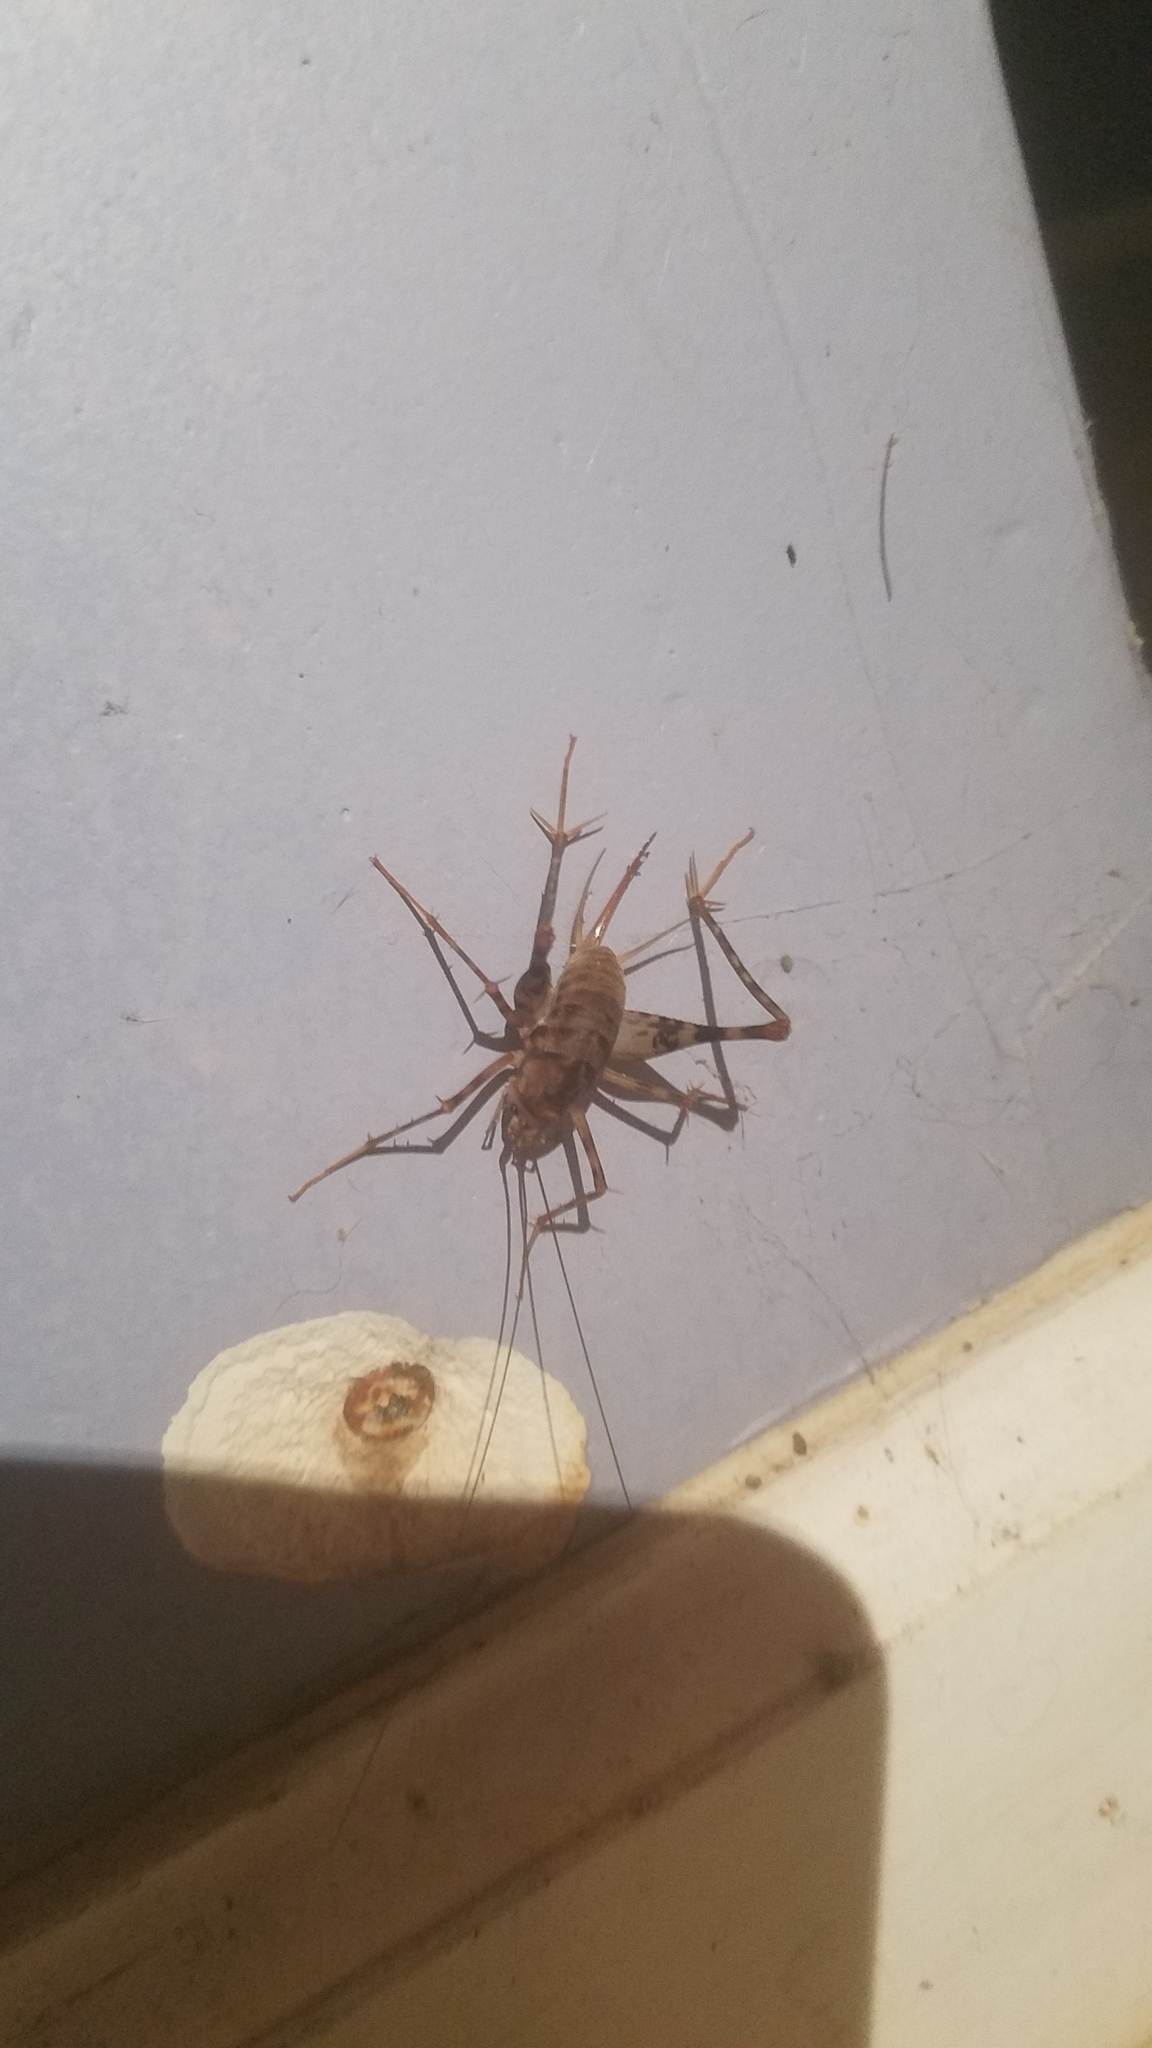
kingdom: Animalia
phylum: Arthropoda
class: Insecta
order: Orthoptera
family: Rhaphidophoridae
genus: Tachycines
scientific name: Tachycines asynamorus
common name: Greenhouse camel cricket
